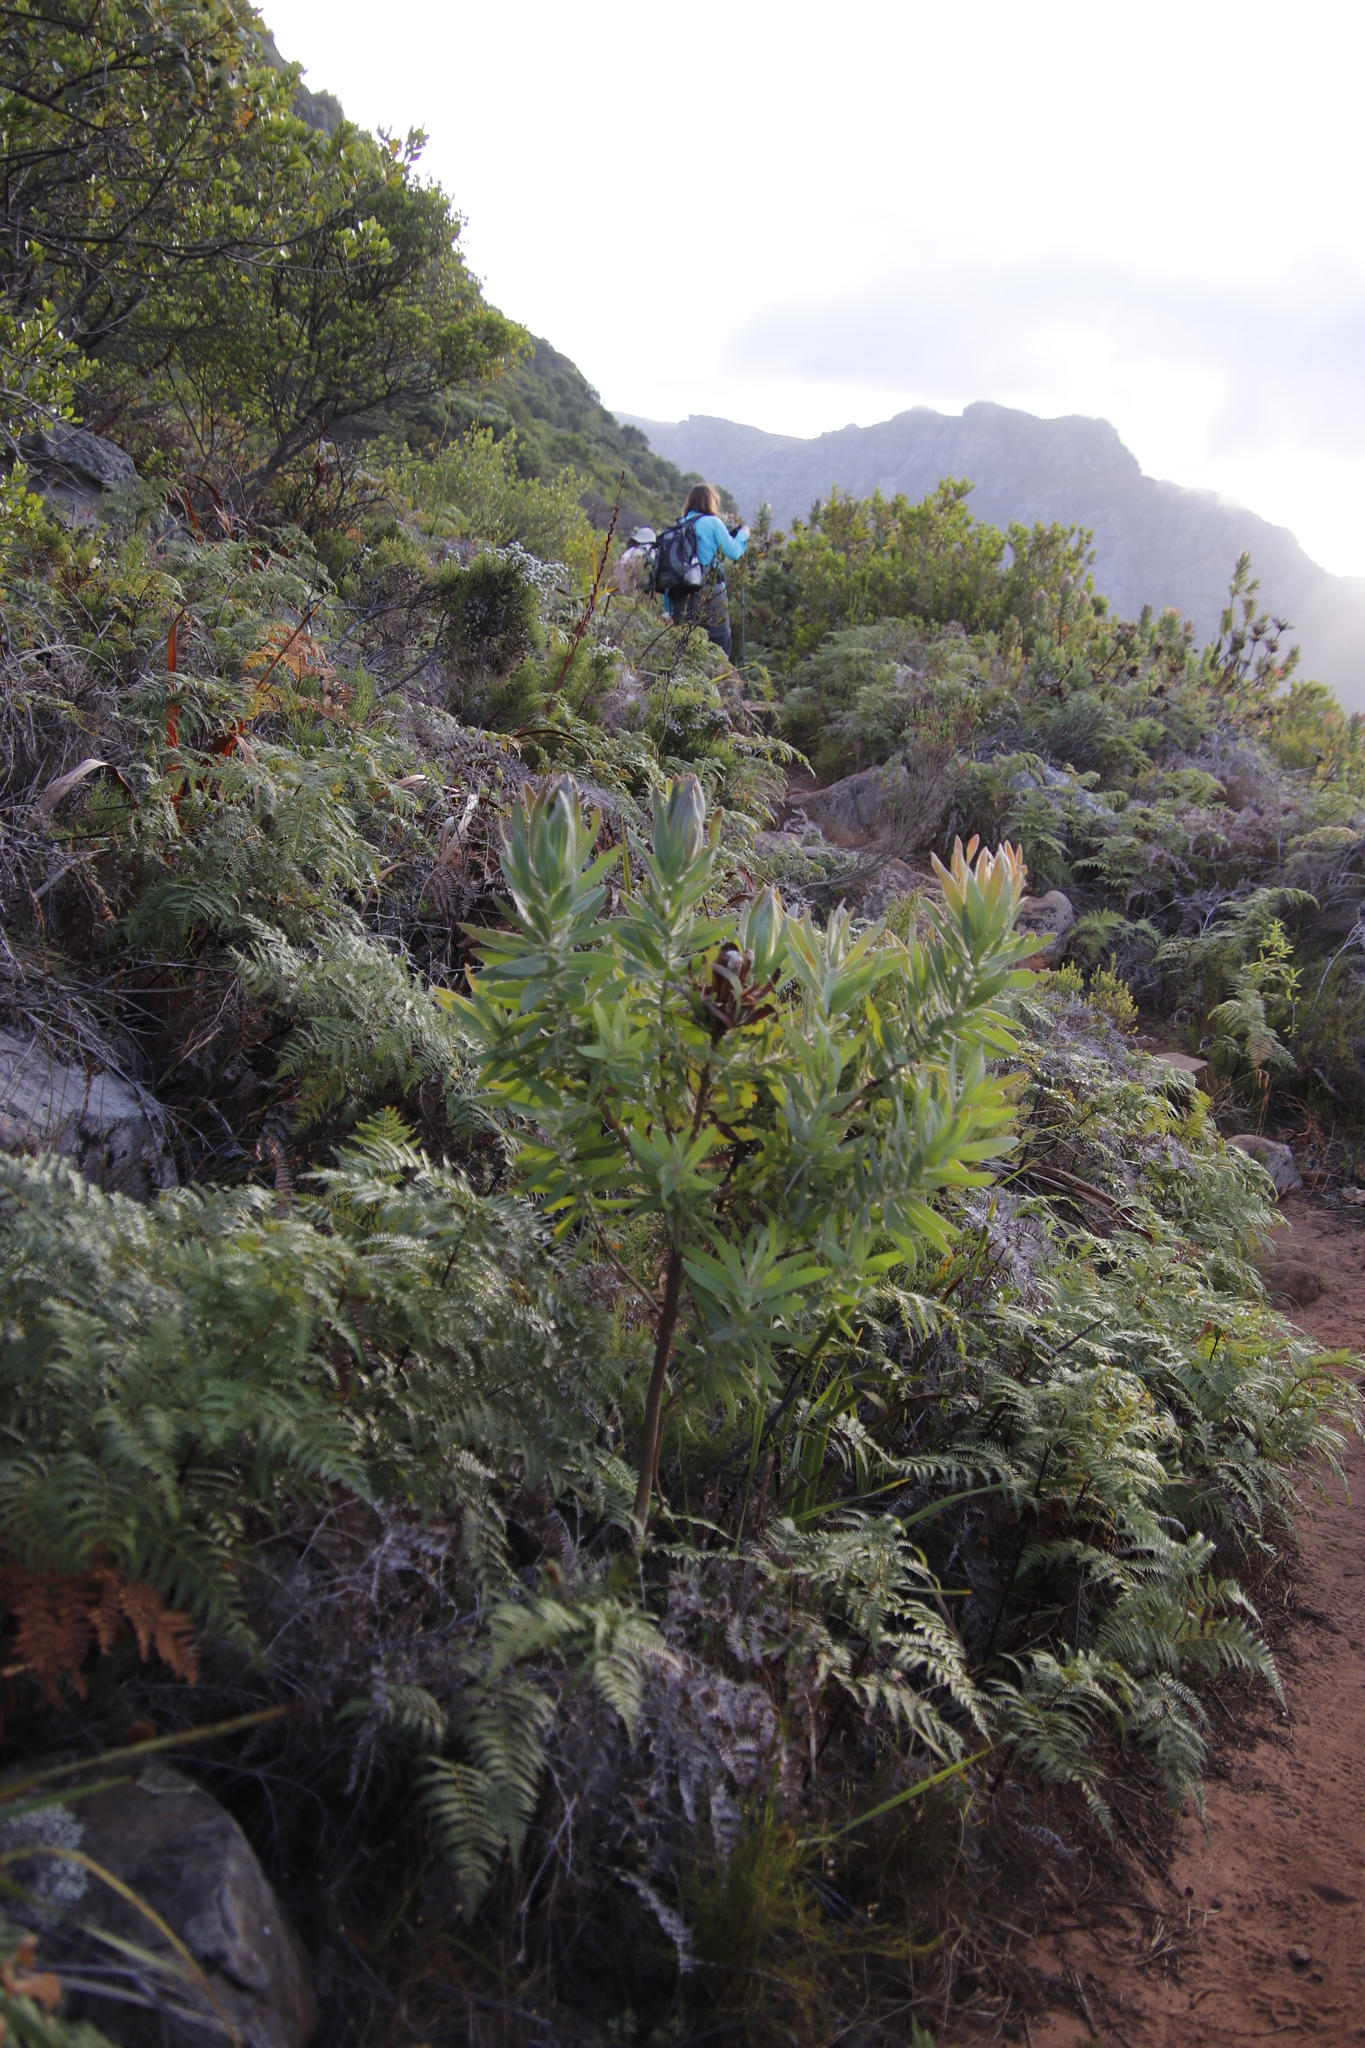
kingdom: Plantae
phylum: Tracheophyta
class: Magnoliopsida
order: Proteales
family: Proteaceae
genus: Protea
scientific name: Protea coronata
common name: Green sugarbush
